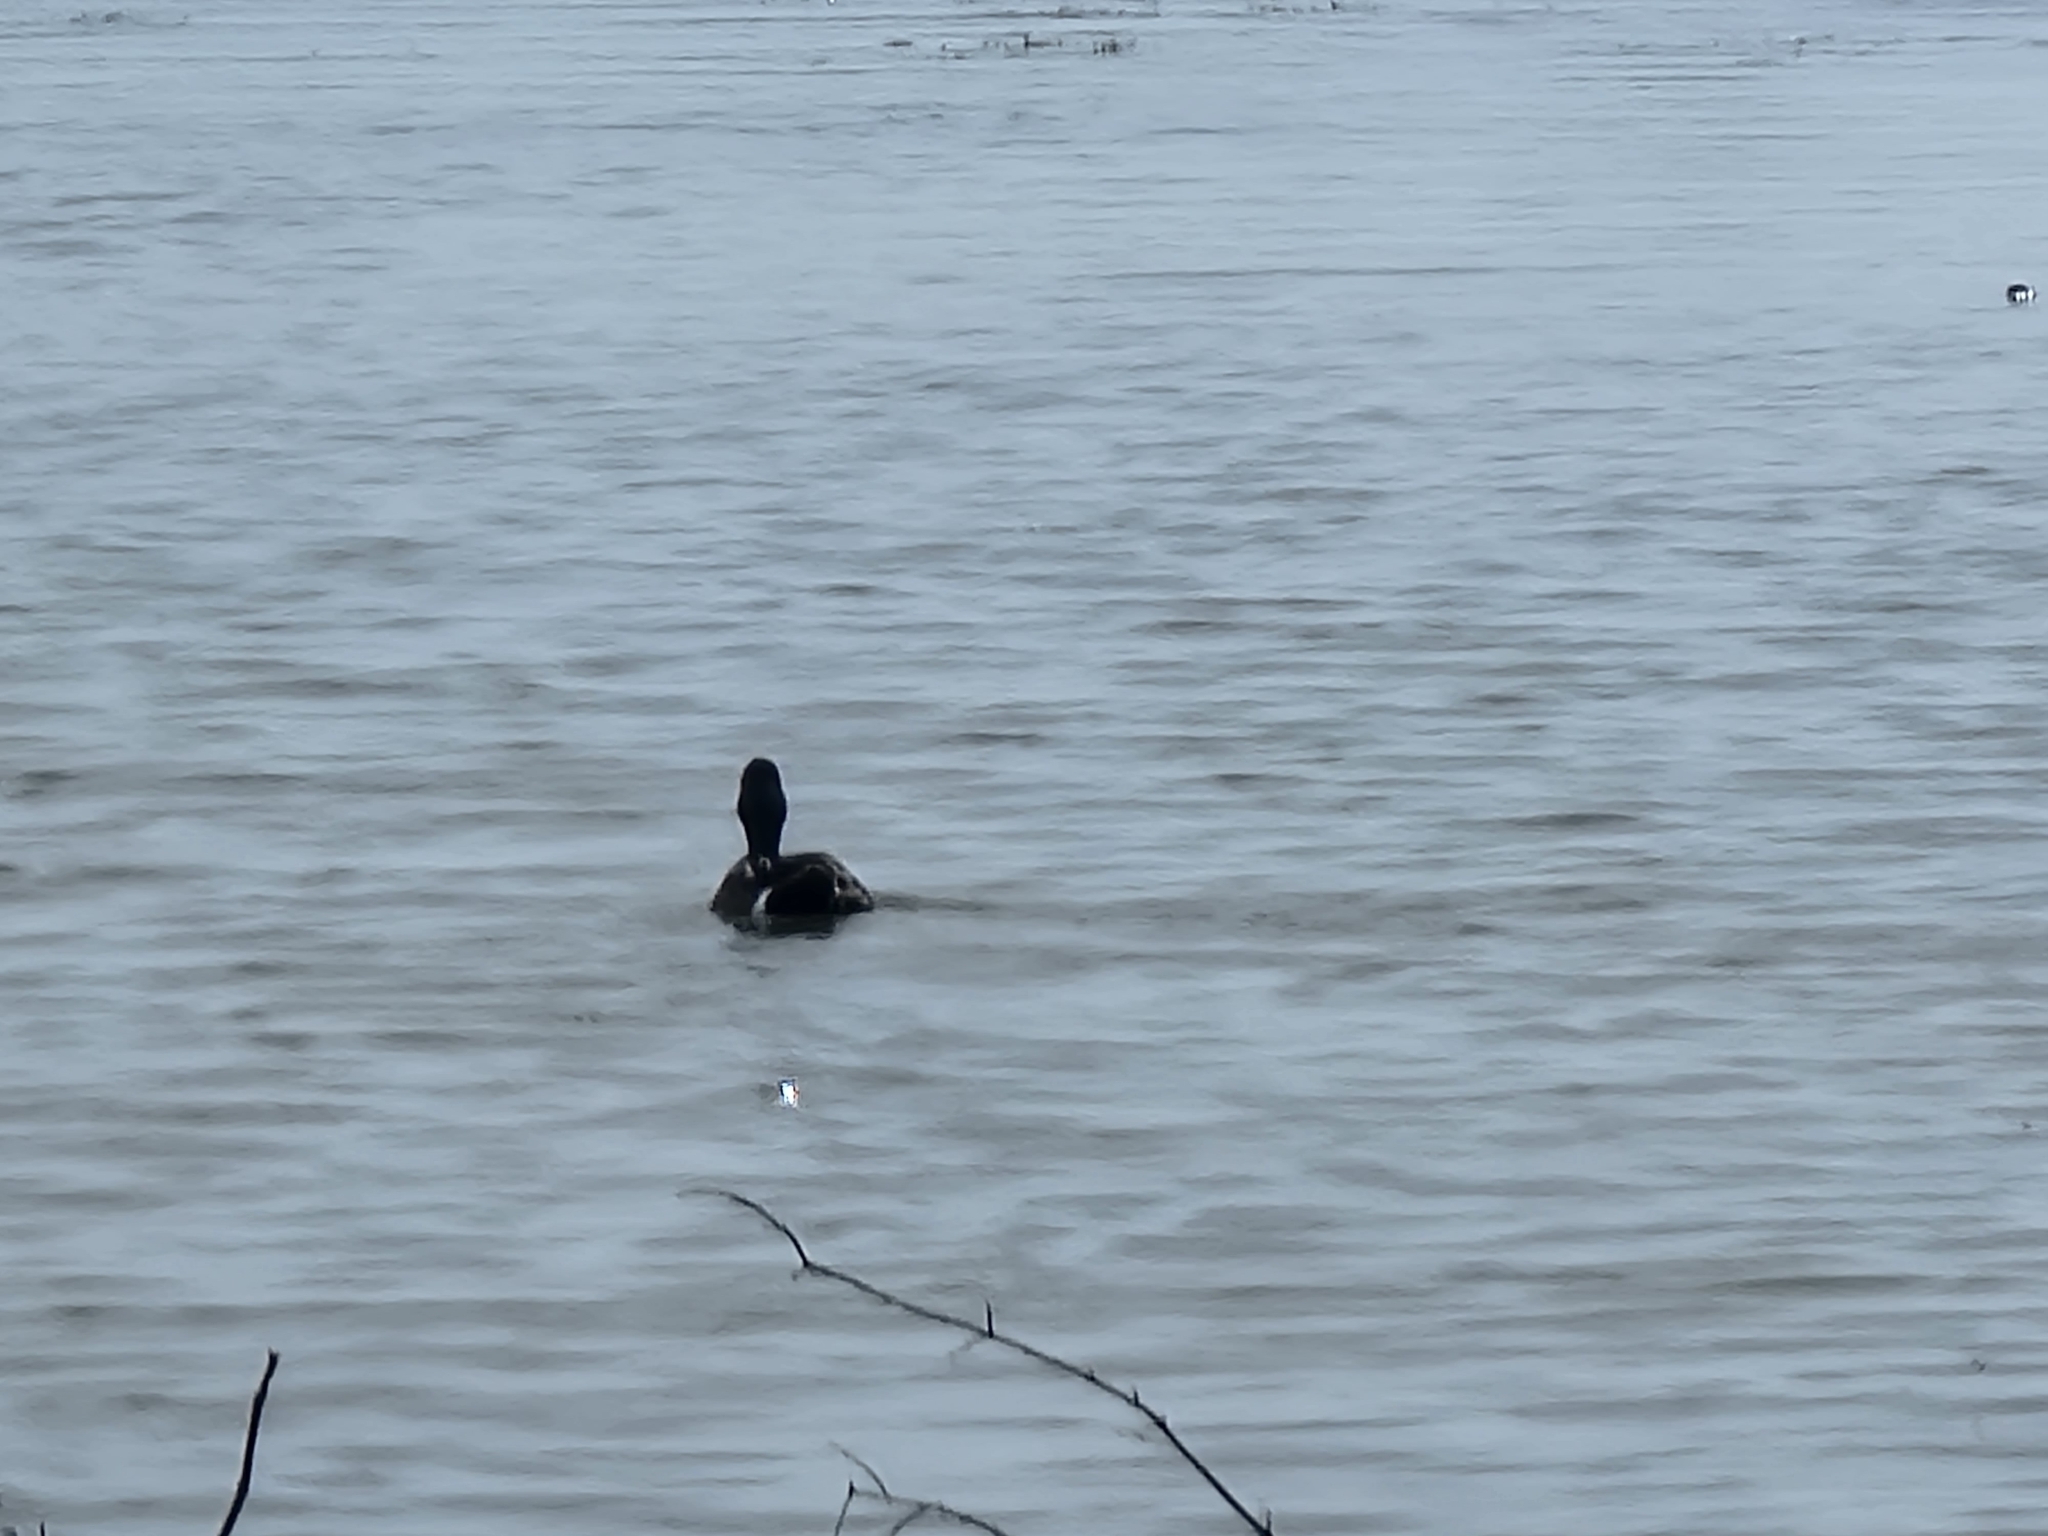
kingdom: Animalia
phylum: Chordata
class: Aves
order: Anseriformes
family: Anatidae
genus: Spatula
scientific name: Spatula discors
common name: Blue-winged teal
